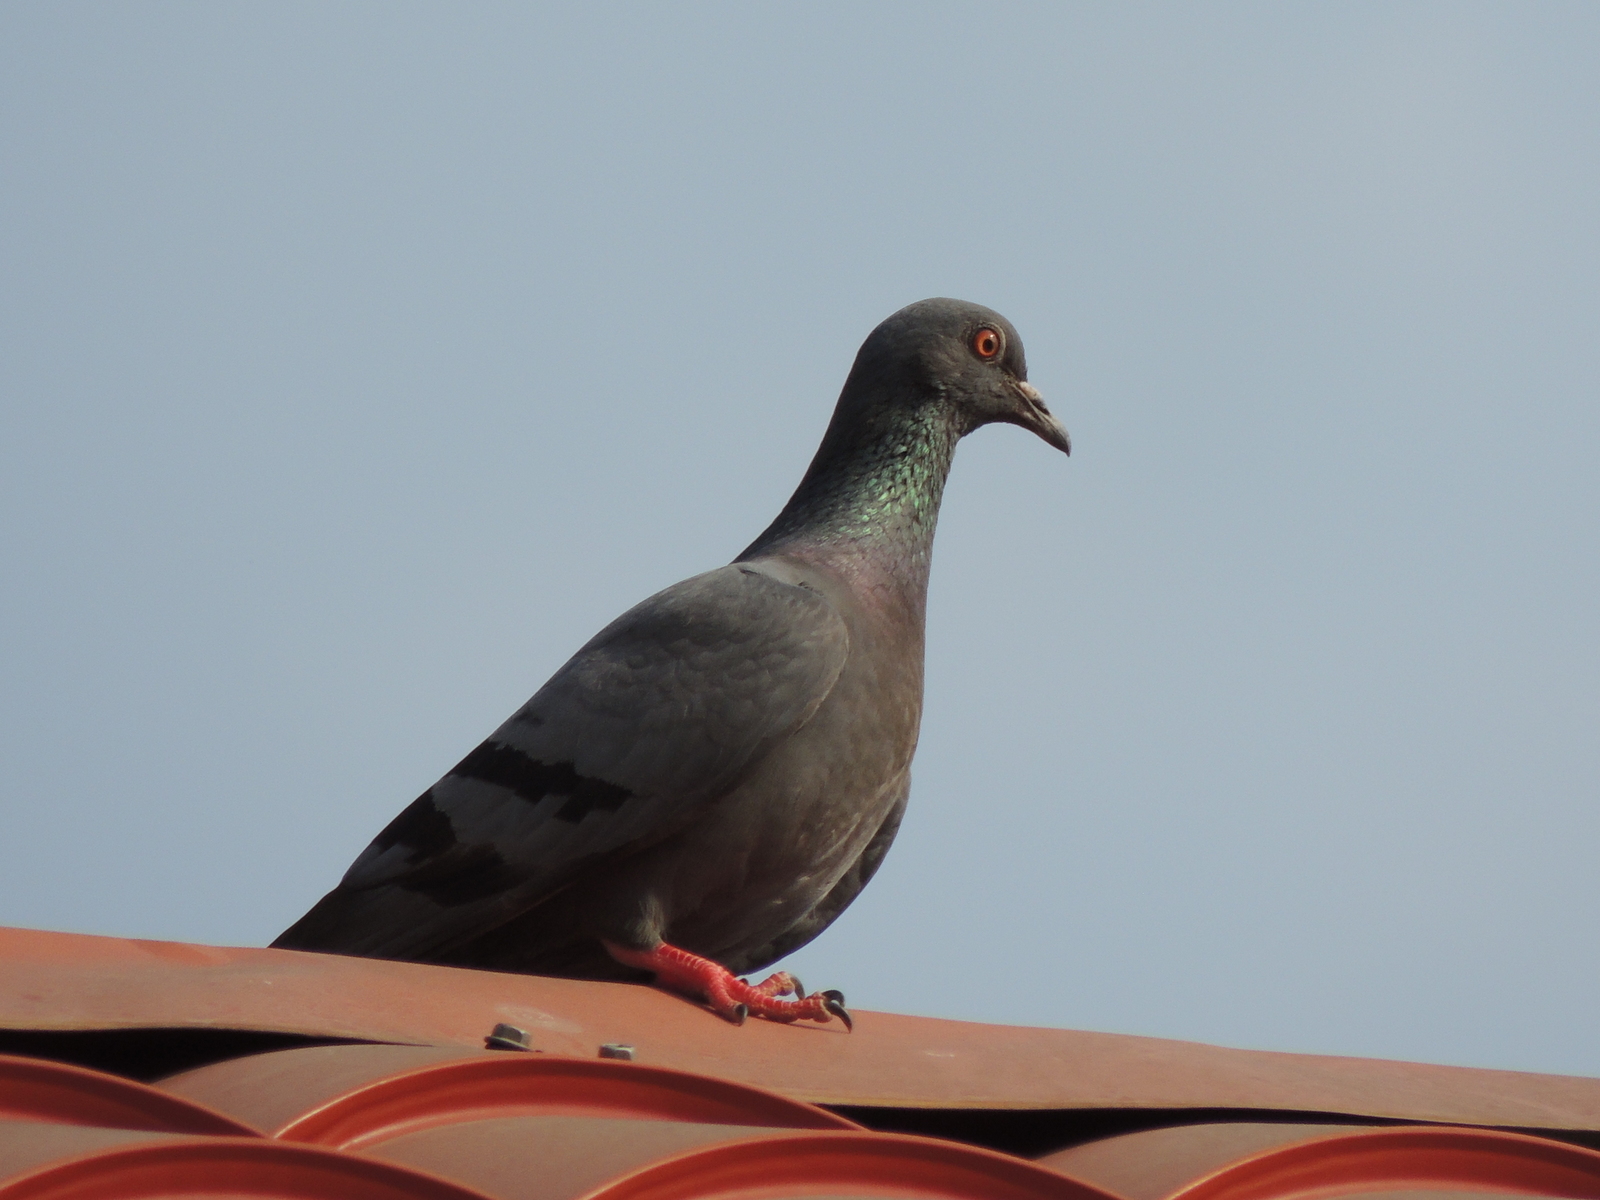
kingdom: Animalia
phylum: Chordata
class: Aves
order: Columbiformes
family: Columbidae
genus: Columba
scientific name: Columba livia
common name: Rock pigeon
